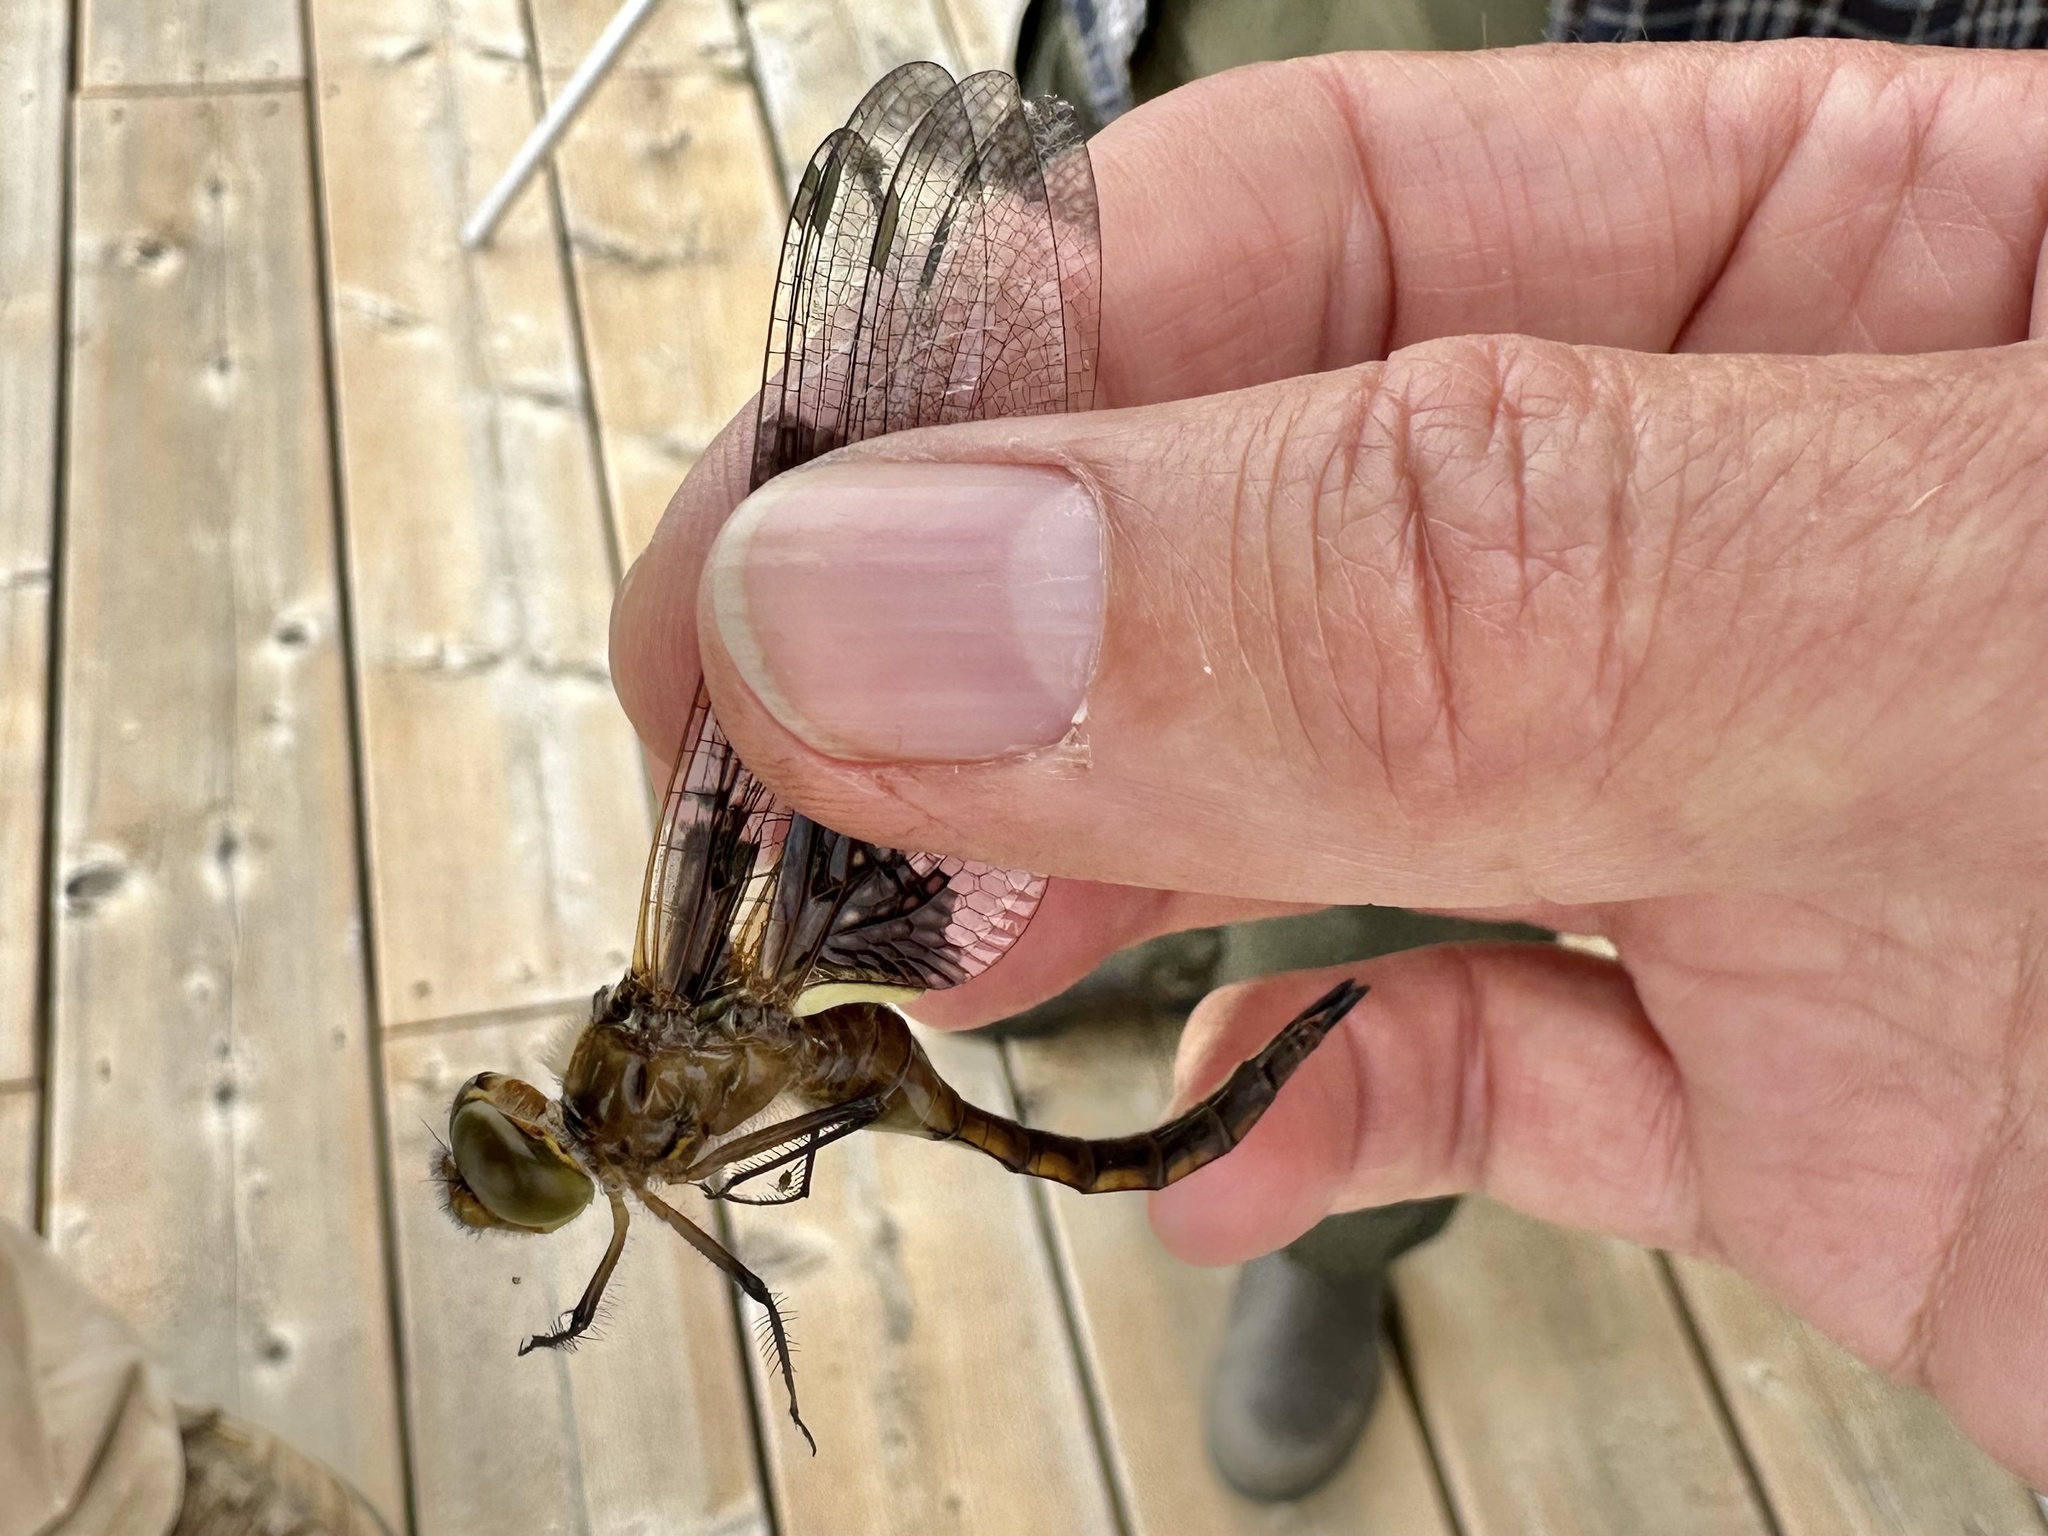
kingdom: Animalia
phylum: Arthropoda
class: Insecta
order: Odonata
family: Corduliidae
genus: Epitheca
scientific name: Epitheca princeps
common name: Prince baskettail
